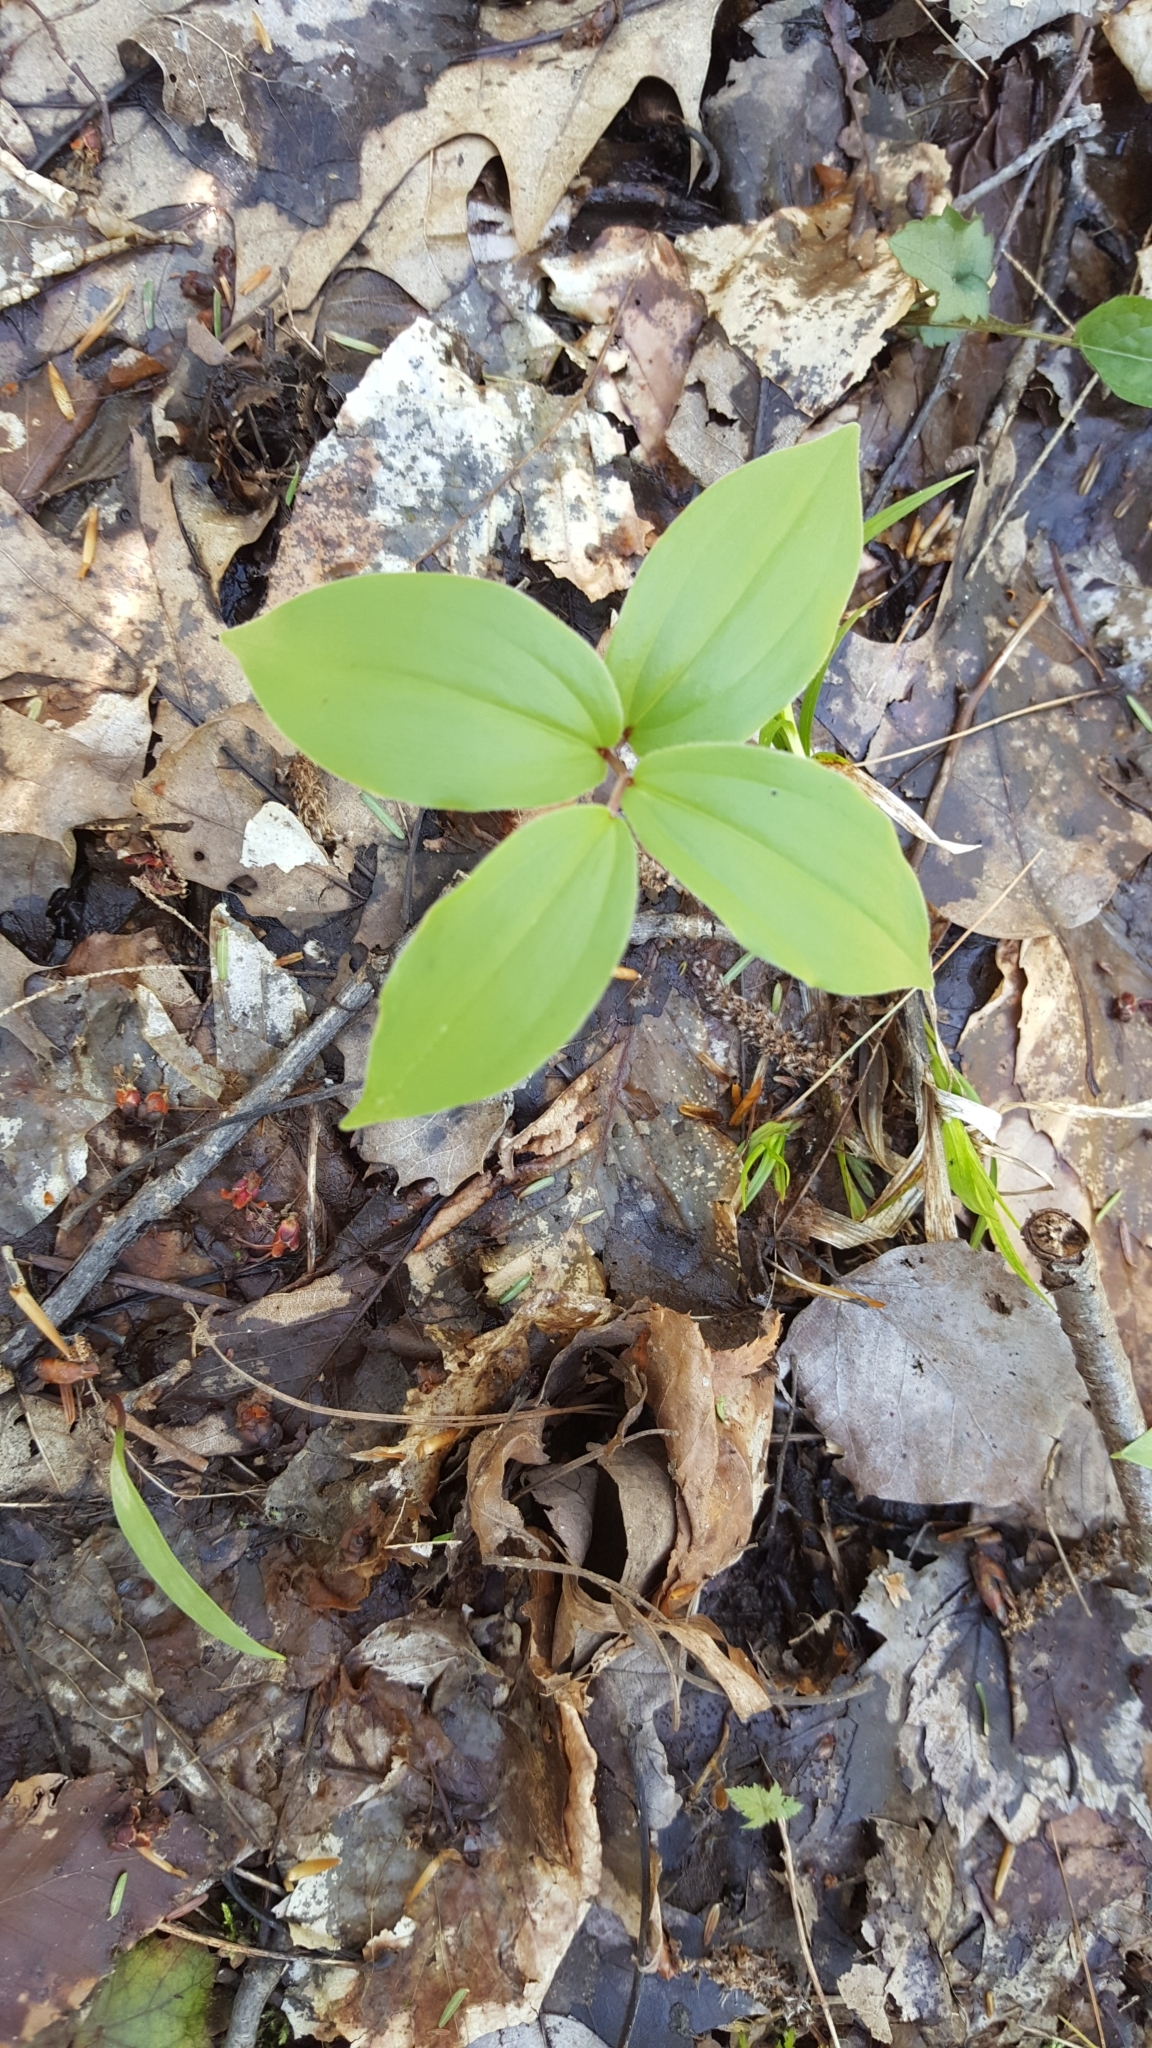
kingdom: Plantae
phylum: Tracheophyta
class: Liliopsida
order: Asparagales
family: Asparagaceae
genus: Maianthemum
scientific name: Maianthemum racemosum
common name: False spikenard
